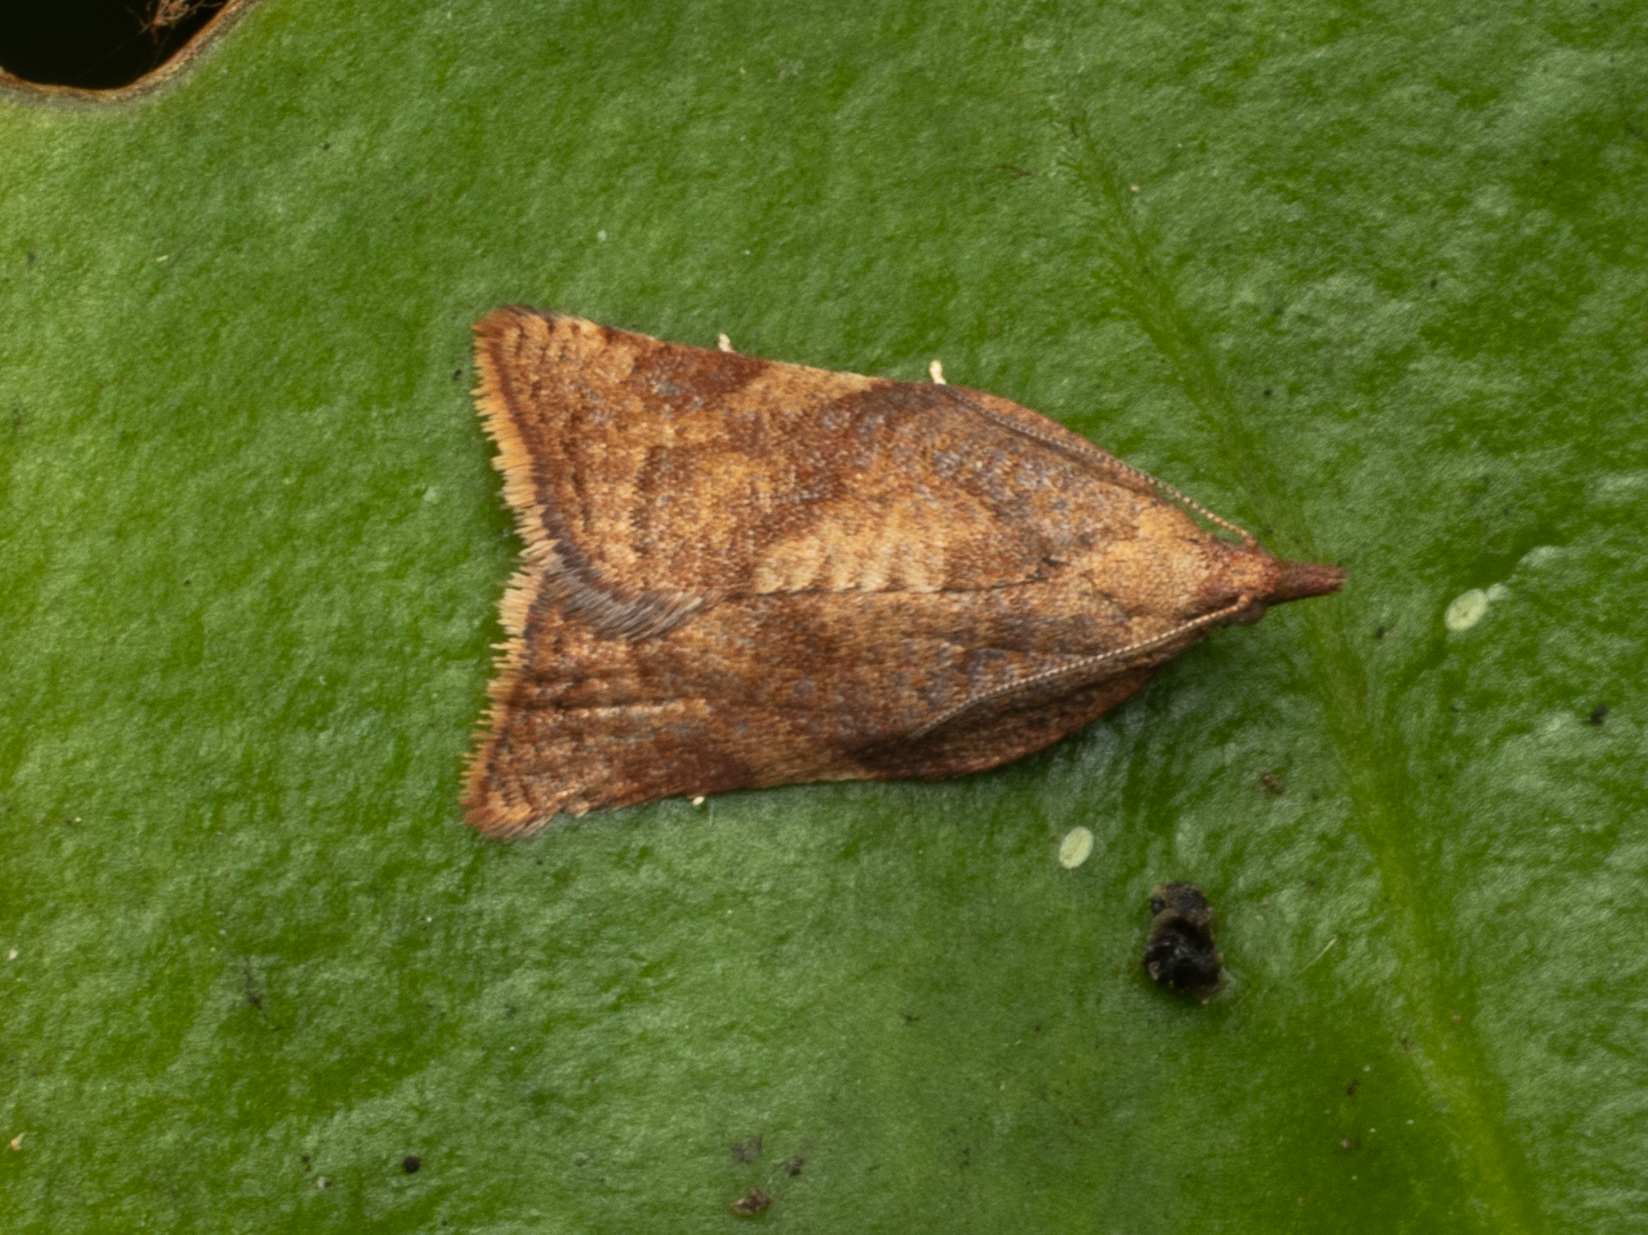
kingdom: Animalia
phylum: Arthropoda
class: Insecta
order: Lepidoptera
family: Tortricidae
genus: Catamacta
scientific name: Catamacta gavisana
